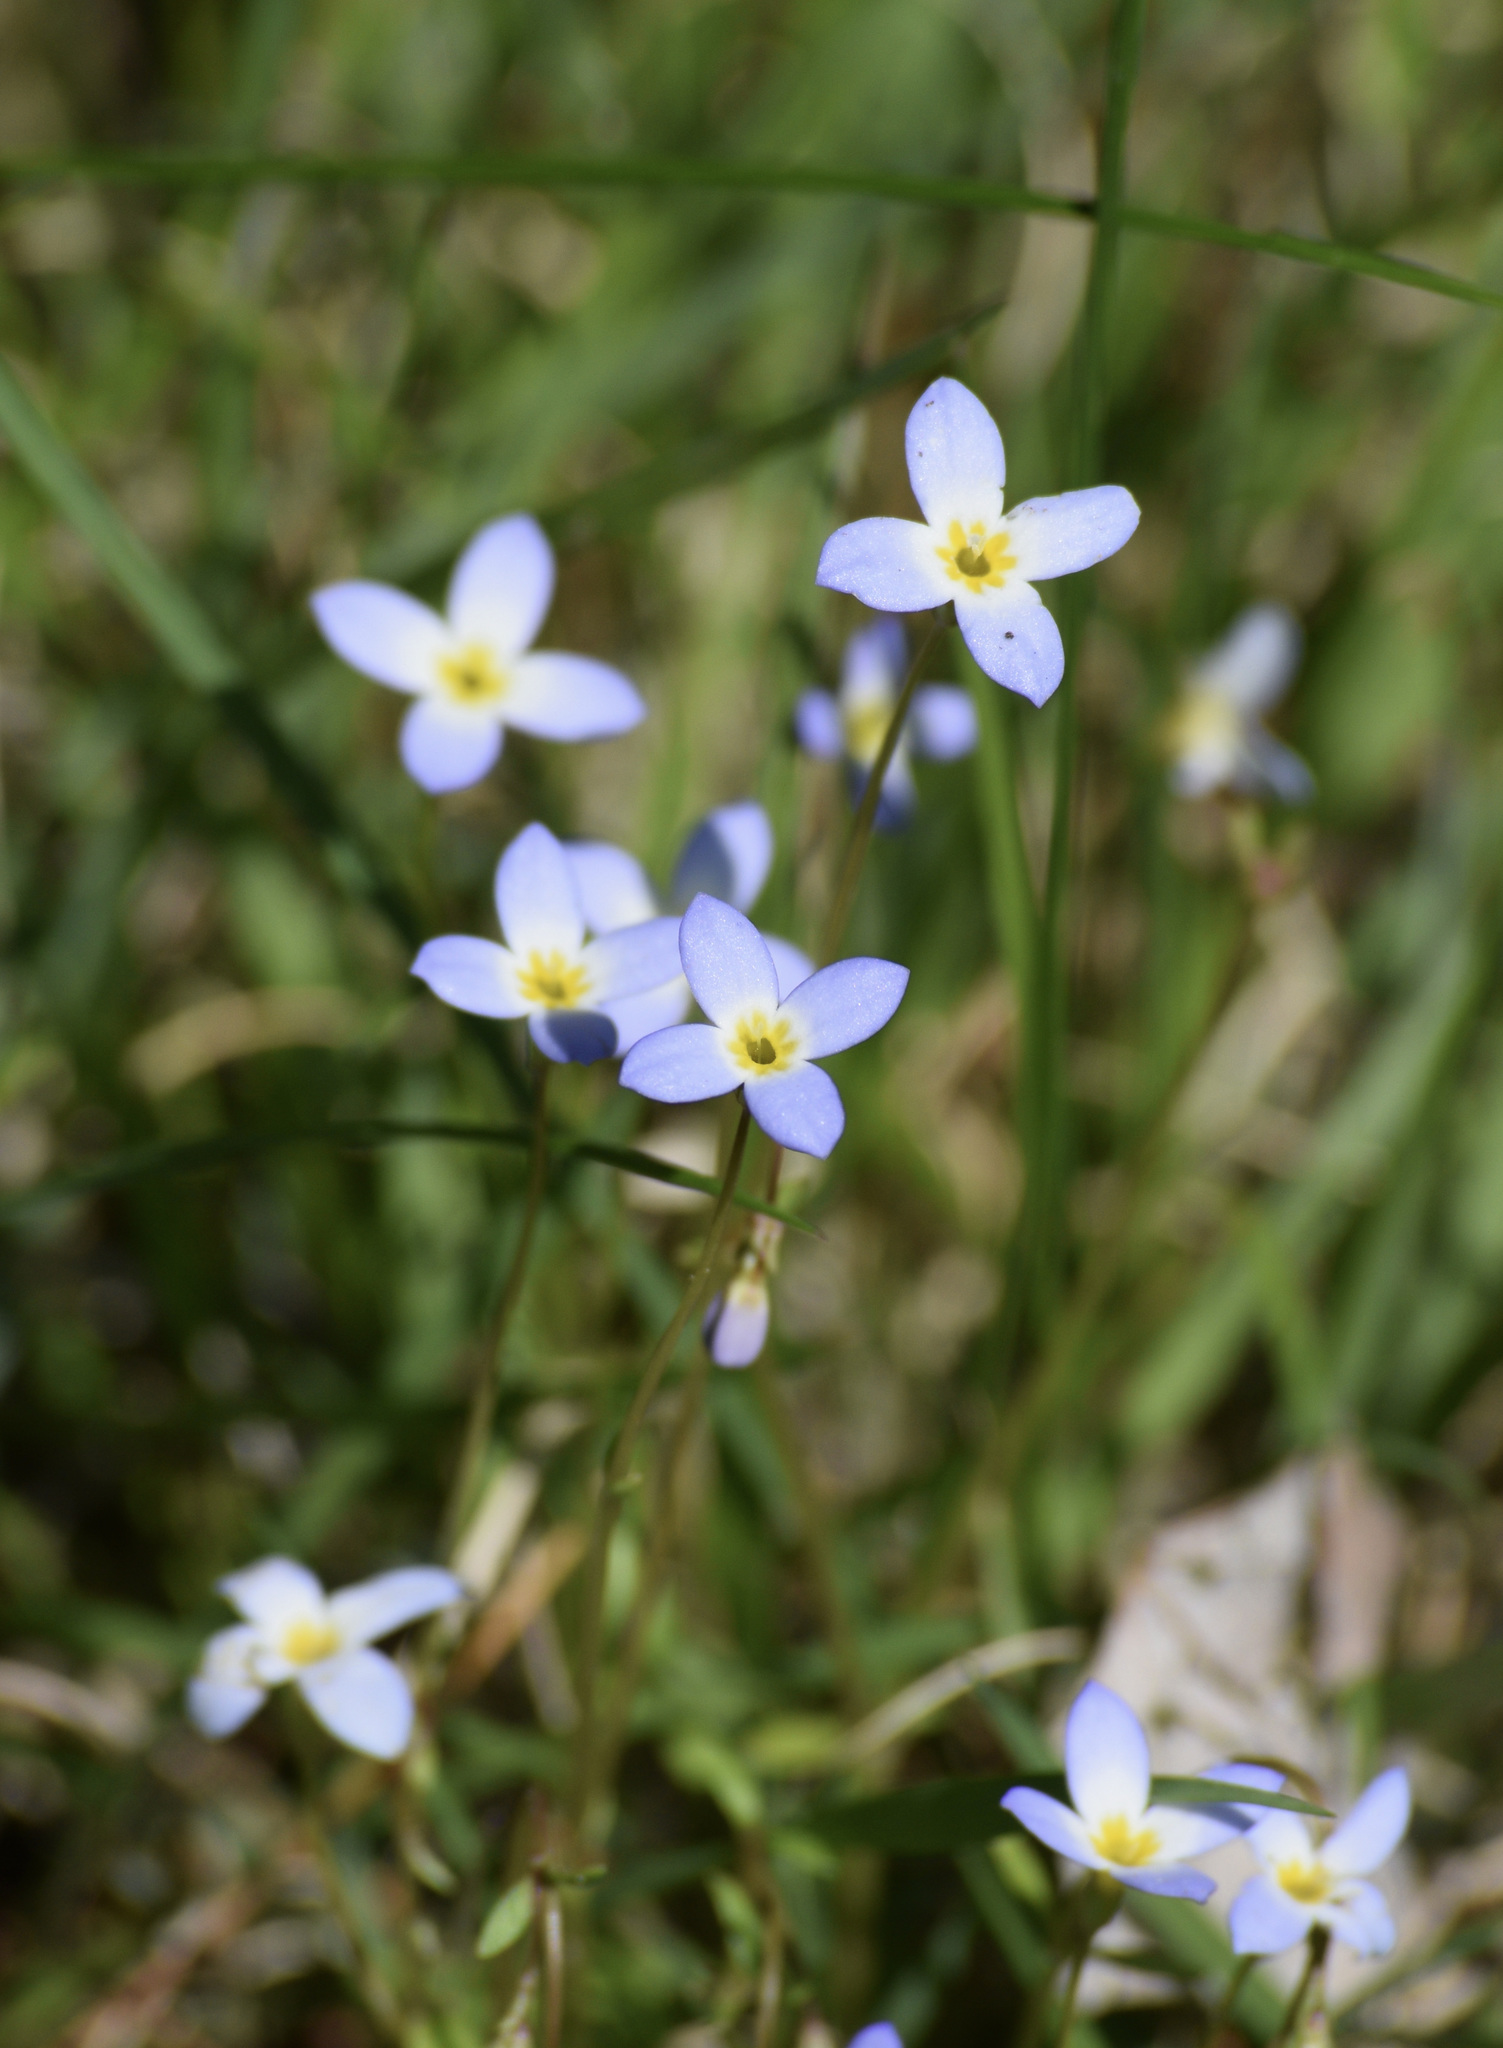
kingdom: Plantae
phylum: Tracheophyta
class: Magnoliopsida
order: Gentianales
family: Rubiaceae
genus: Houstonia
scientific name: Houstonia caerulea
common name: Bluets
